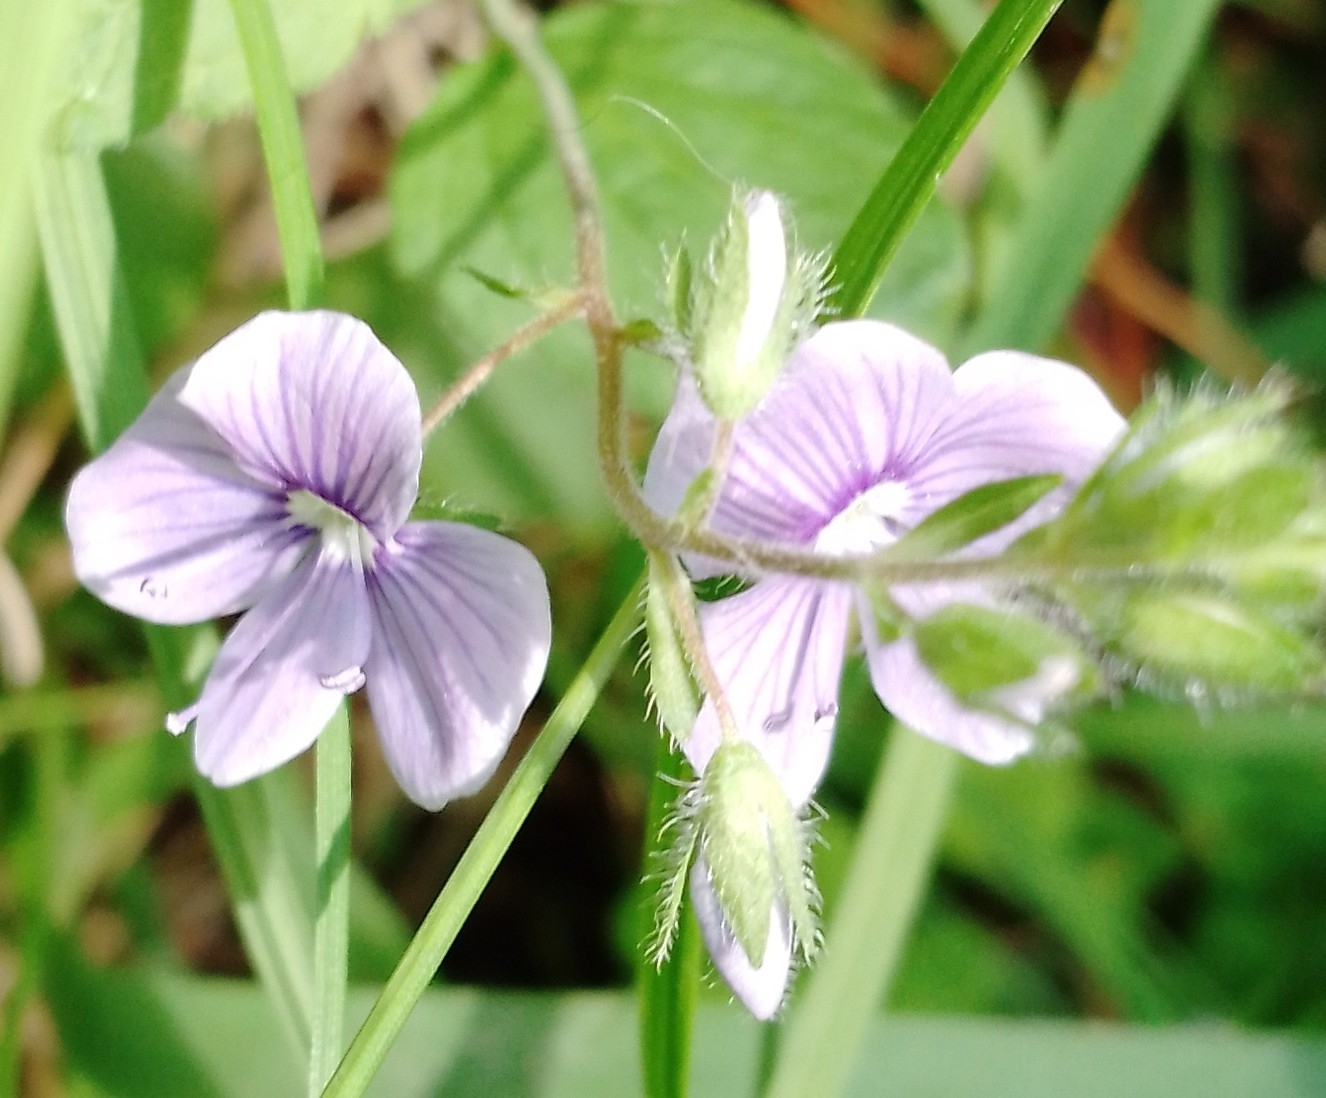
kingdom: Plantae
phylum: Tracheophyta
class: Magnoliopsida
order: Lamiales
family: Plantaginaceae
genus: Veronica
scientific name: Veronica chamaedrys
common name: Germander speedwell
